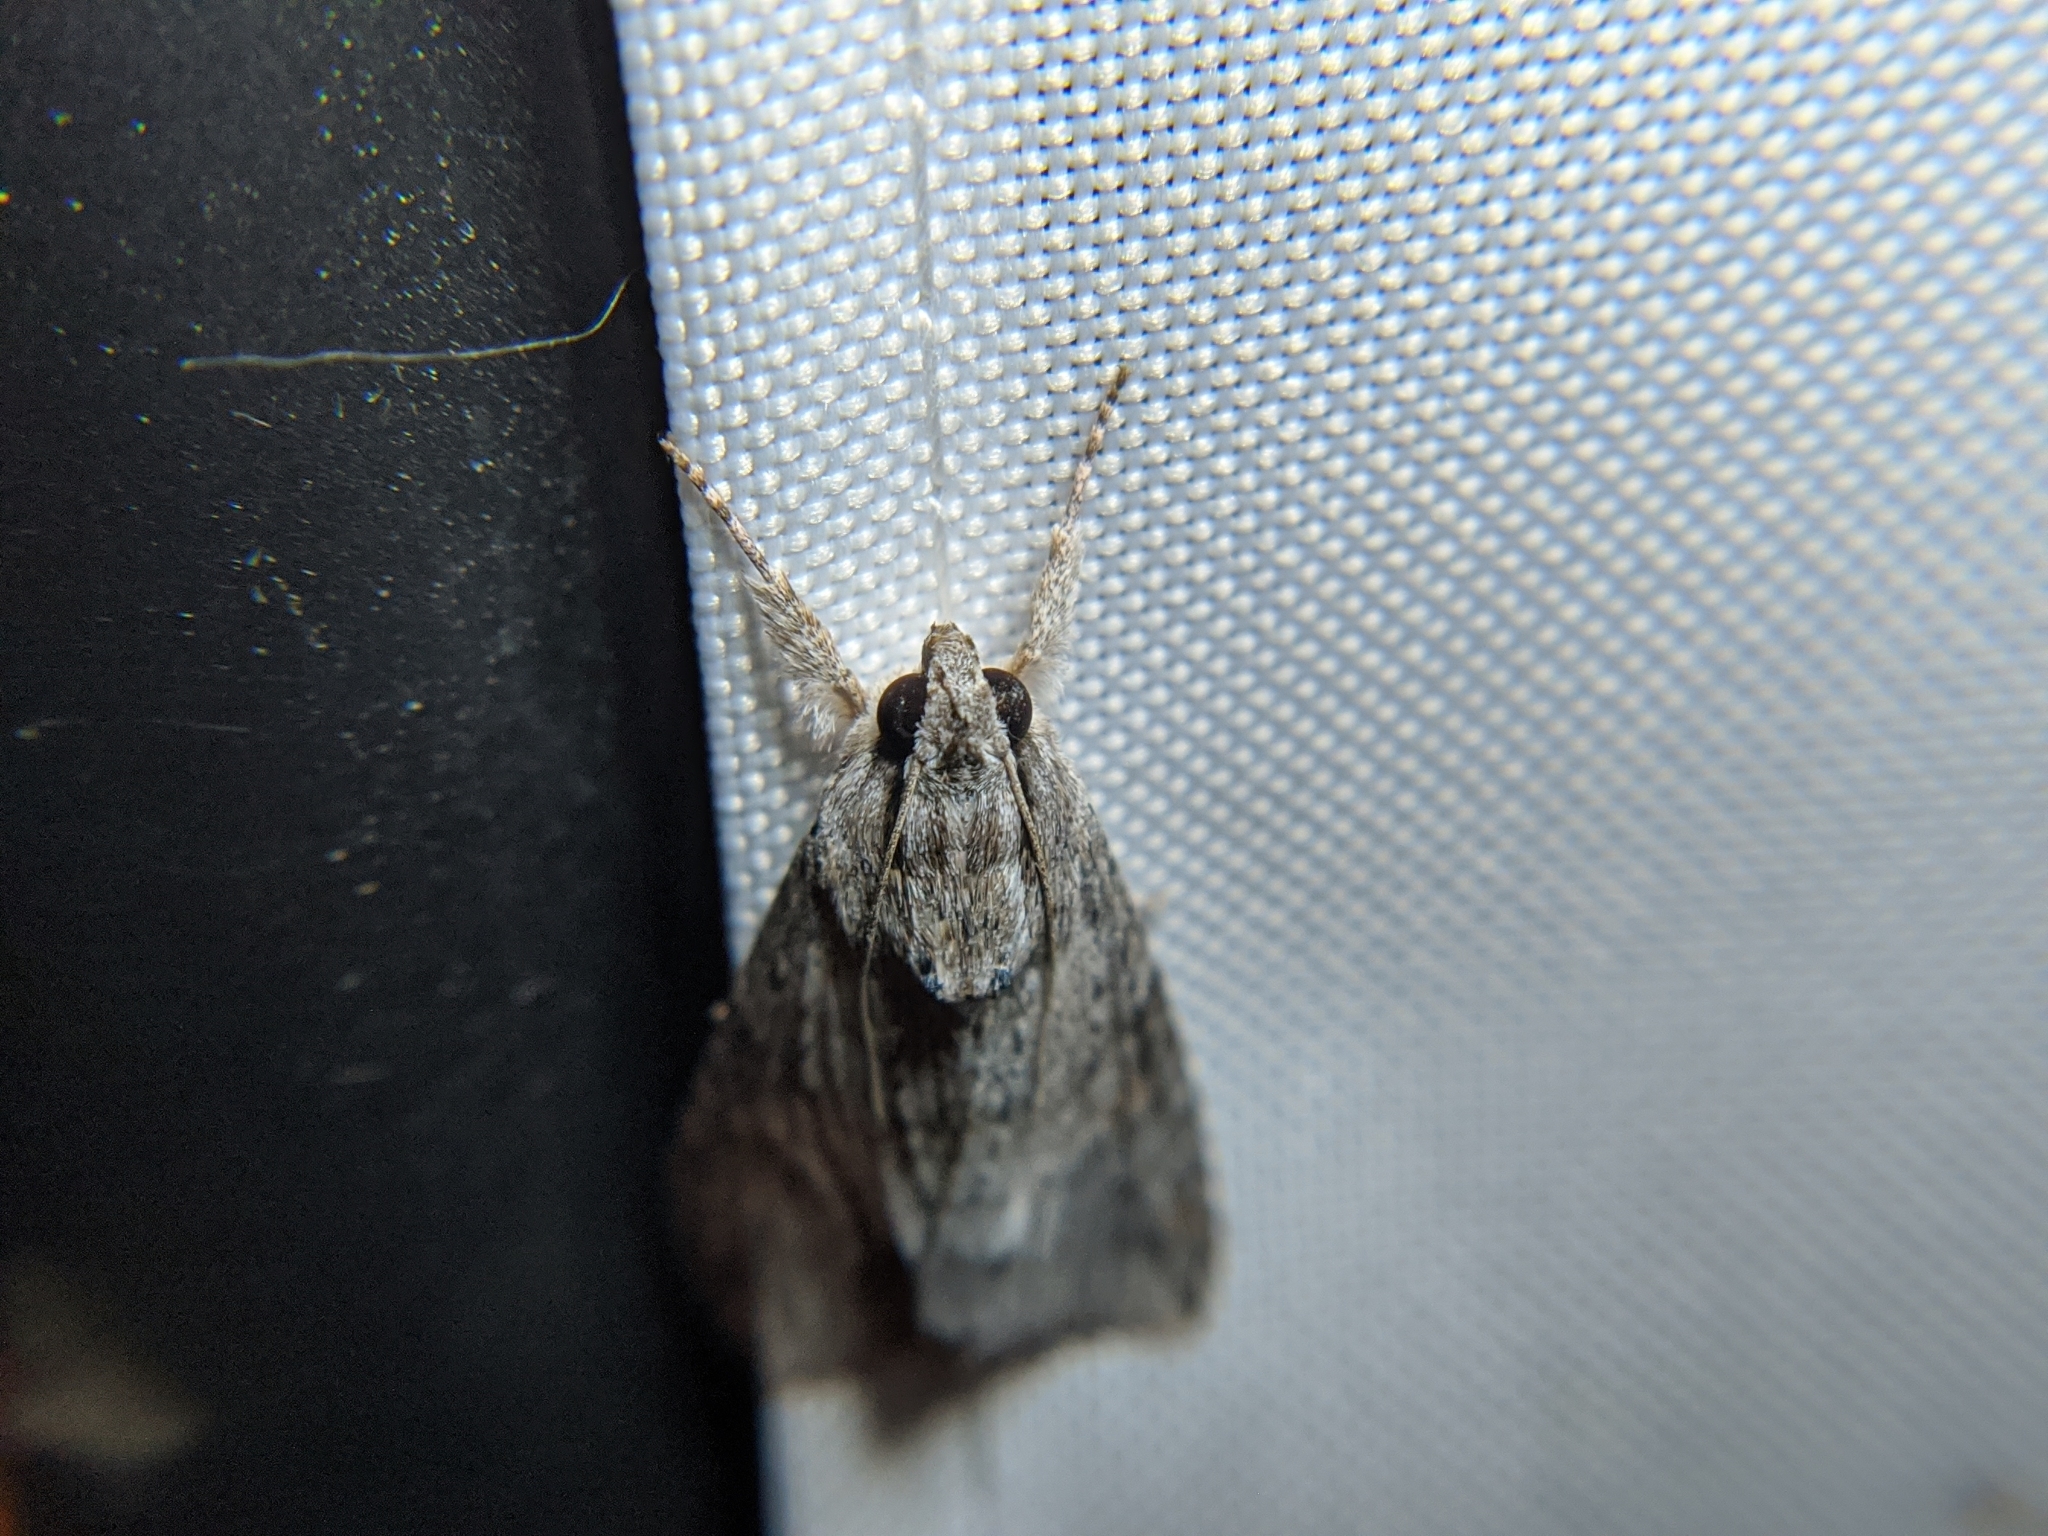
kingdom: Animalia
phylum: Arthropoda
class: Insecta
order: Lepidoptera
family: Erebidae
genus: Melipotis
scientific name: Melipotis acontioides
